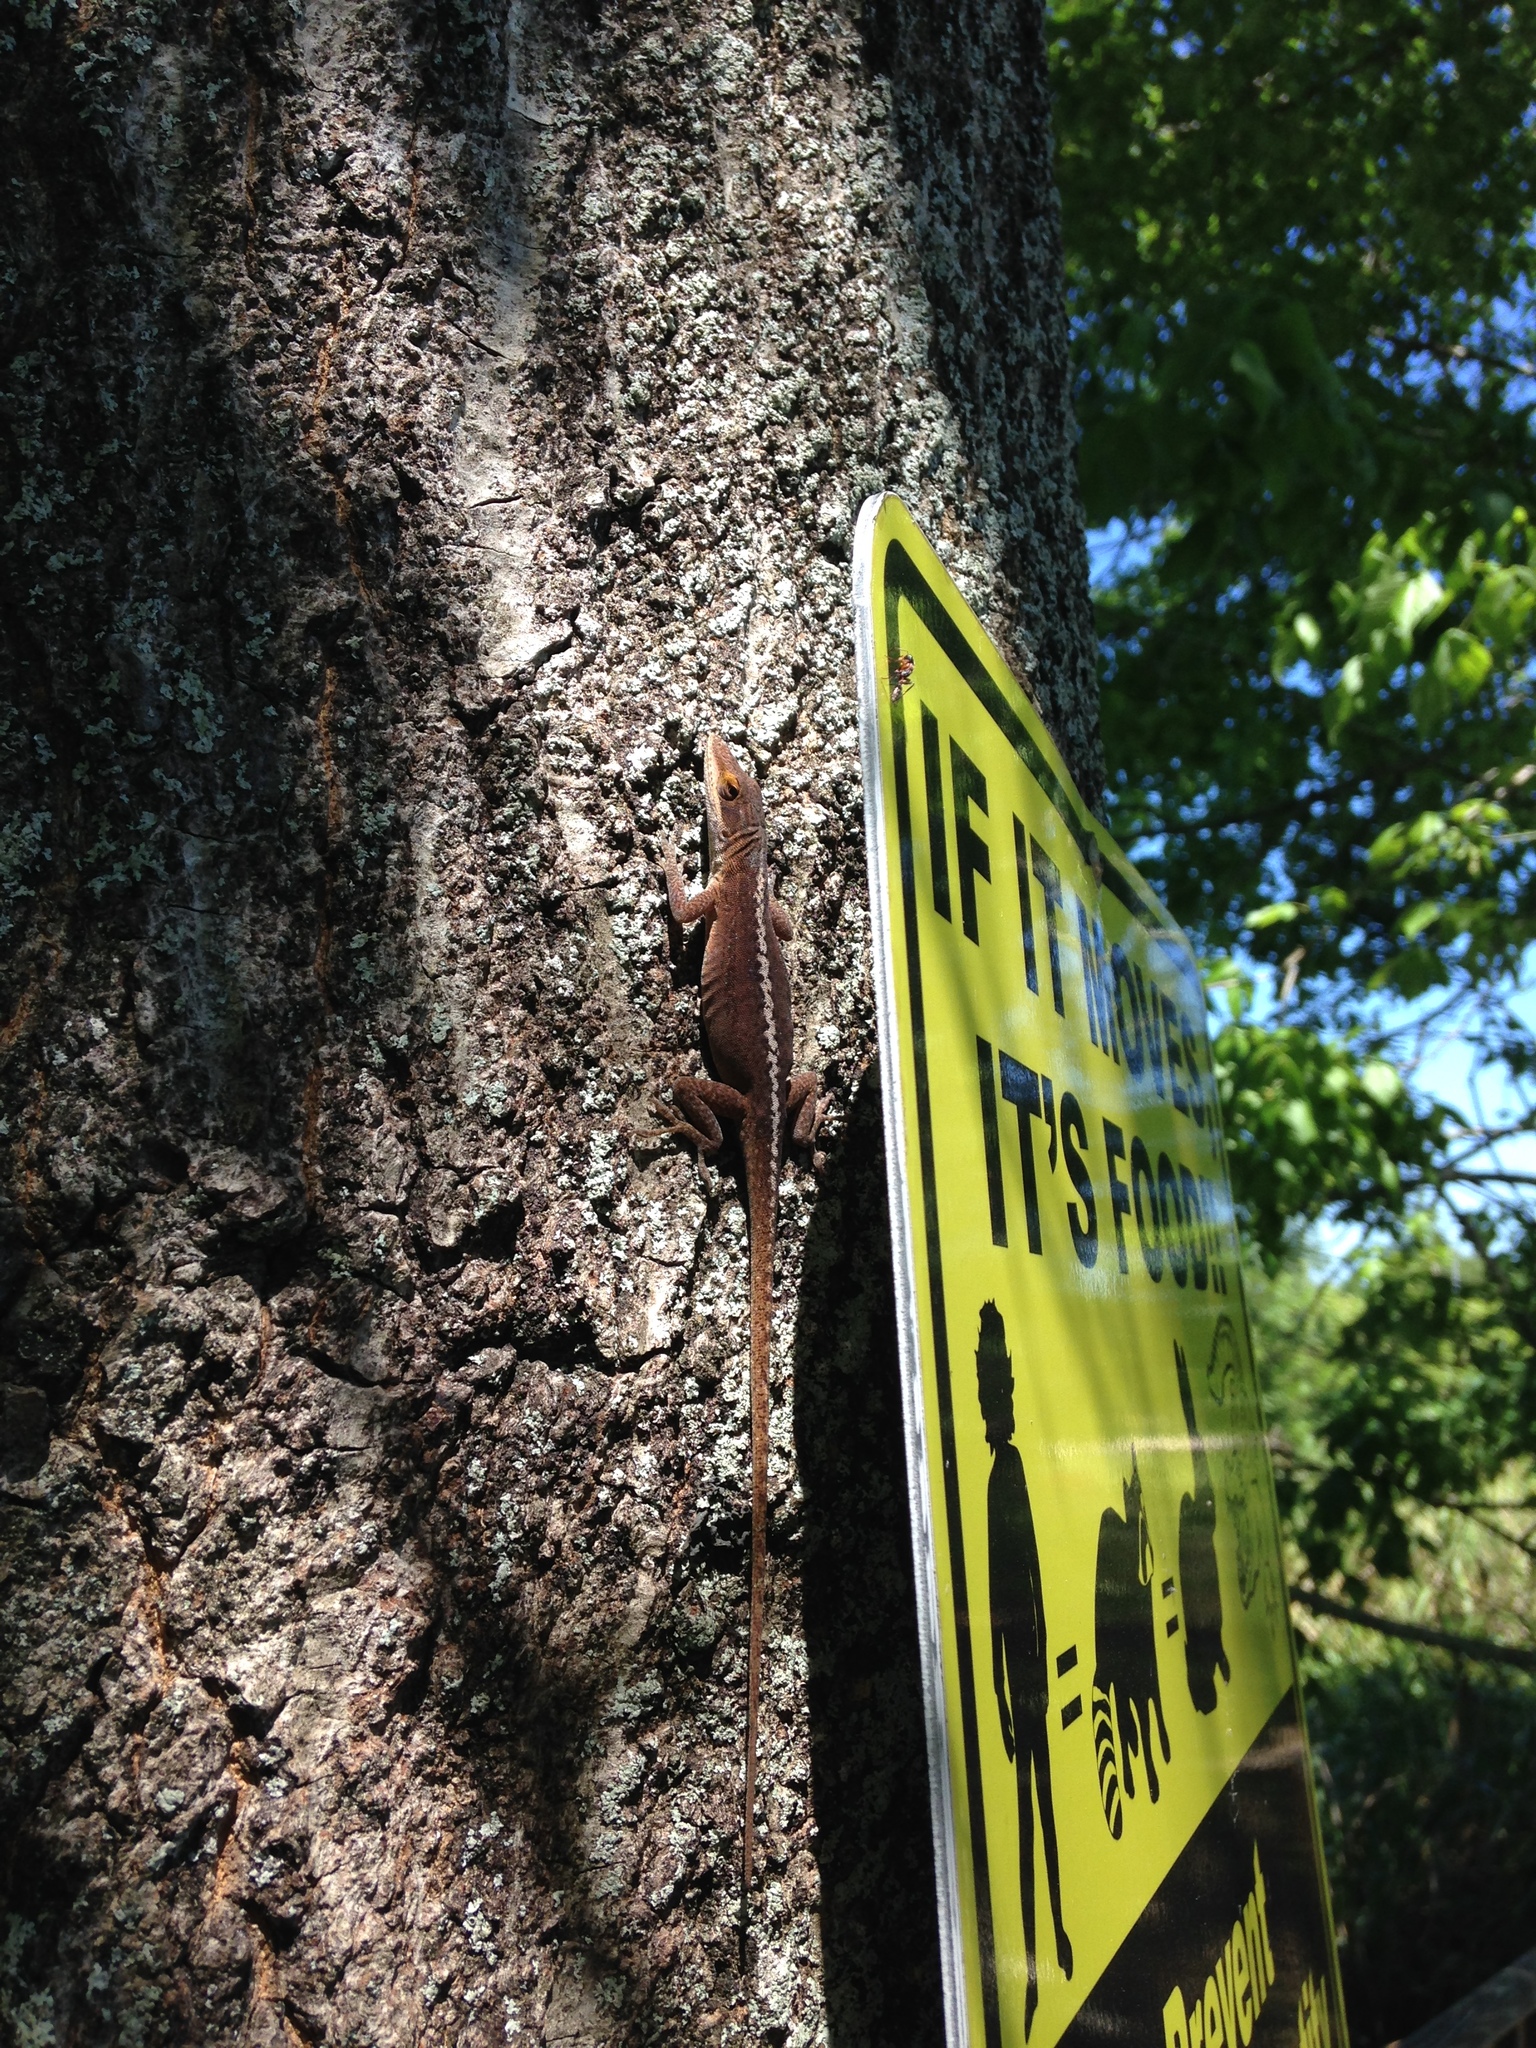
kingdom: Animalia
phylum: Chordata
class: Squamata
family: Dactyloidae
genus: Anolis
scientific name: Anolis carolinensis
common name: Green anole
